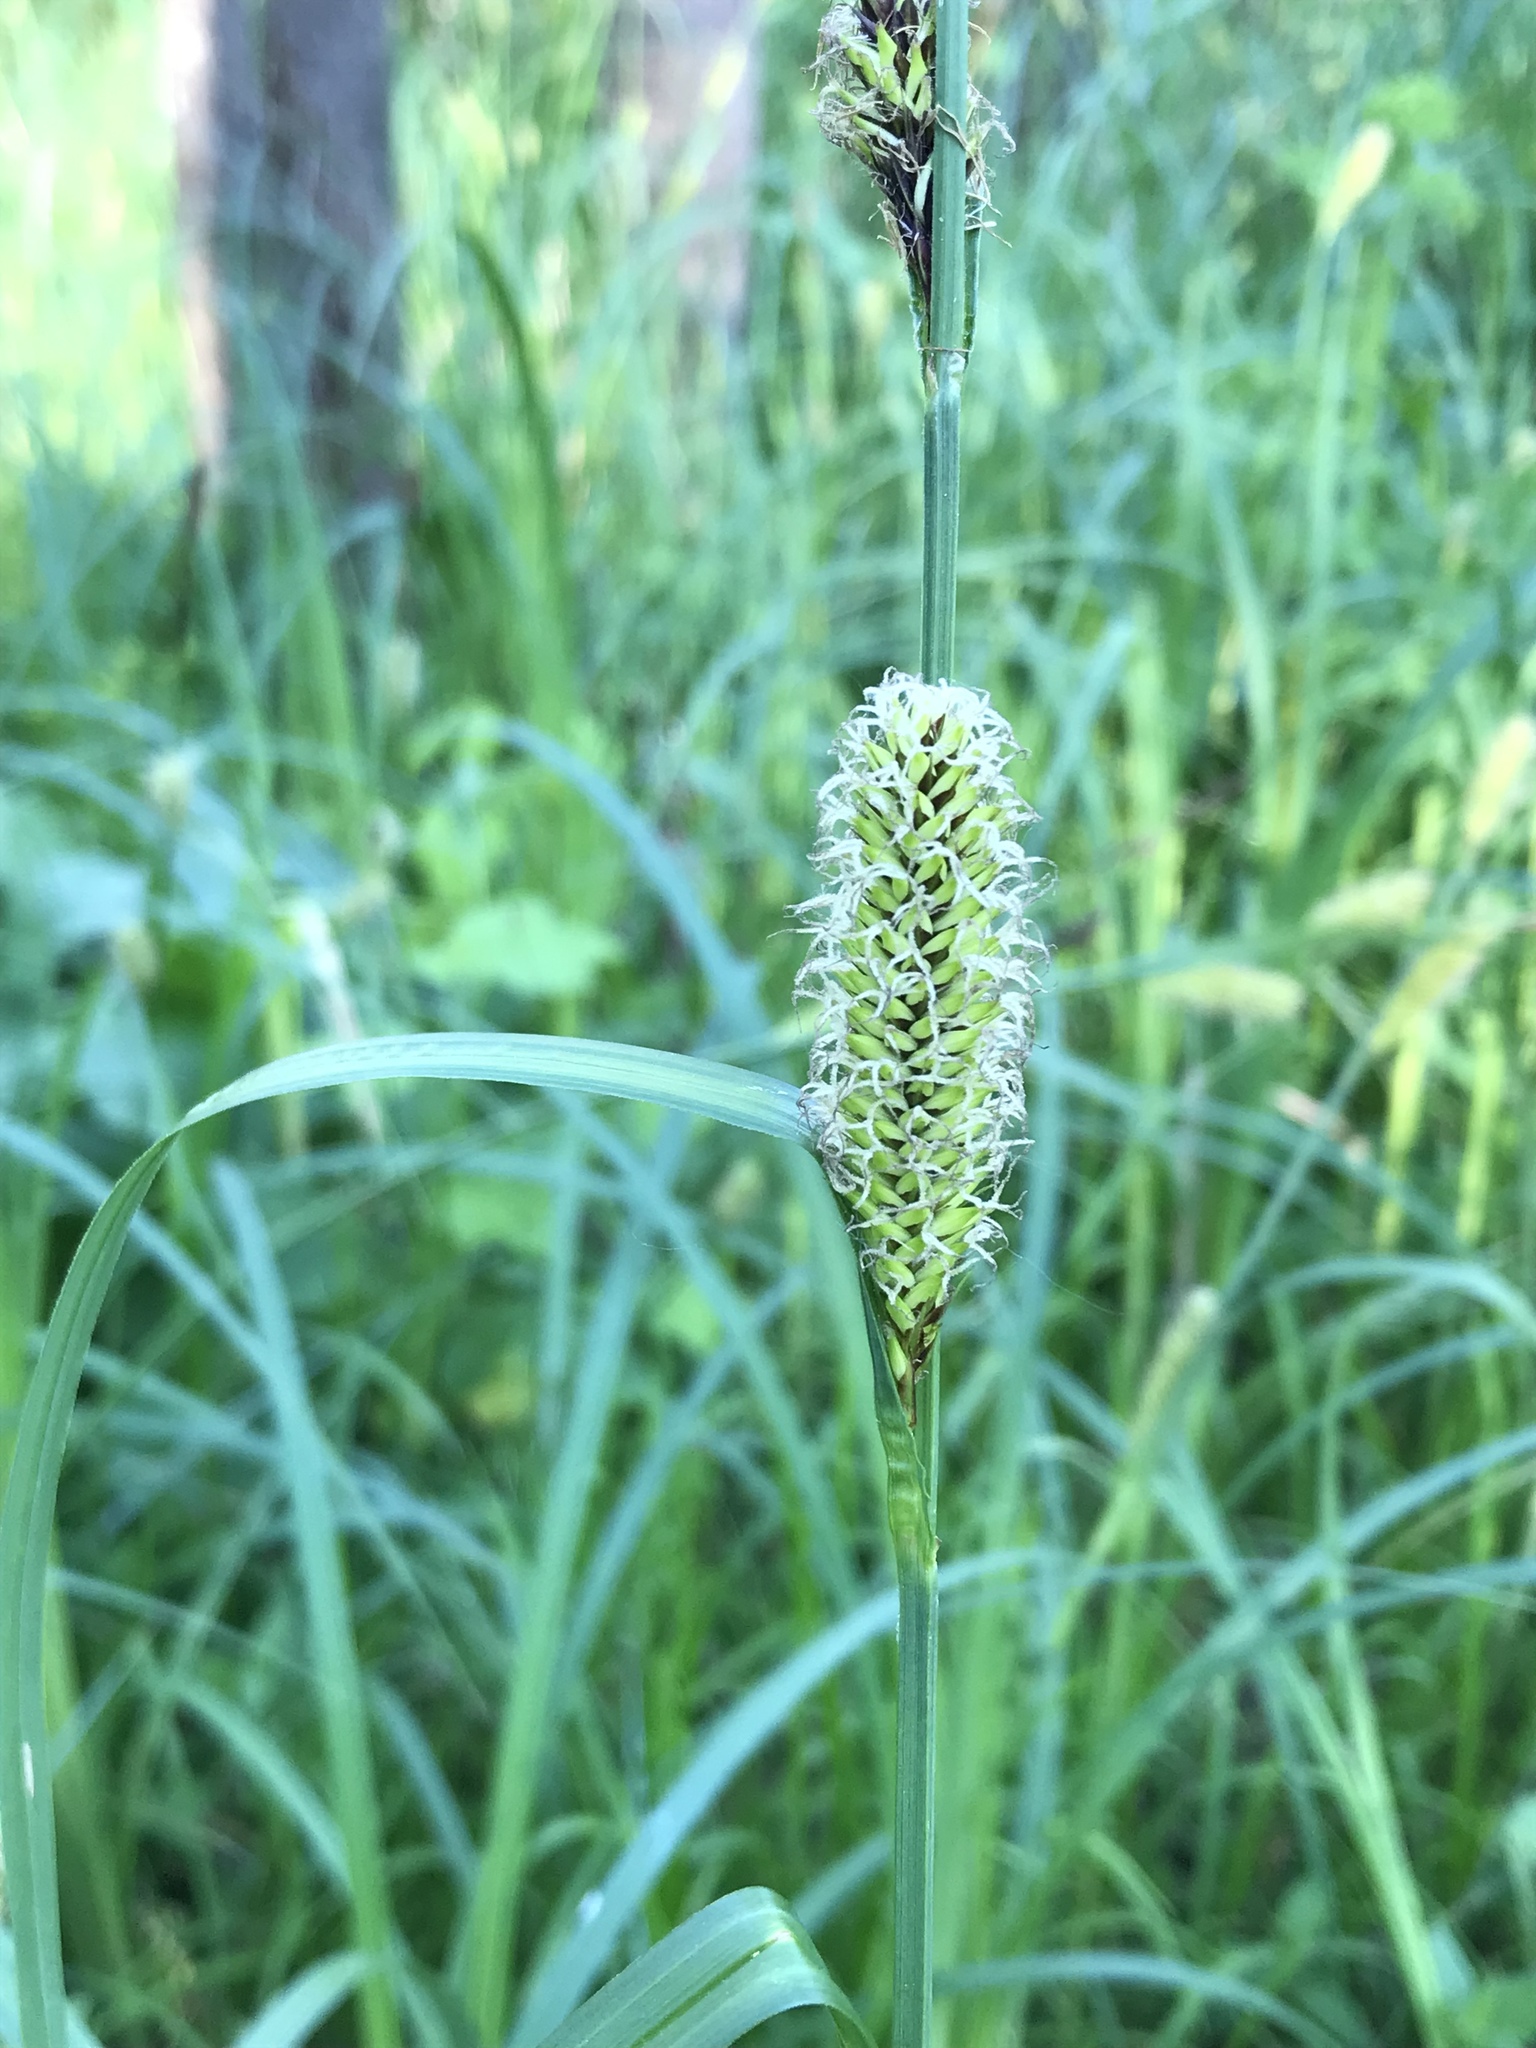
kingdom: Plantae
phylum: Tracheophyta
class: Liliopsida
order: Poales
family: Cyperaceae
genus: Carex
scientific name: Carex lacustris
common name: Common lake sedge
